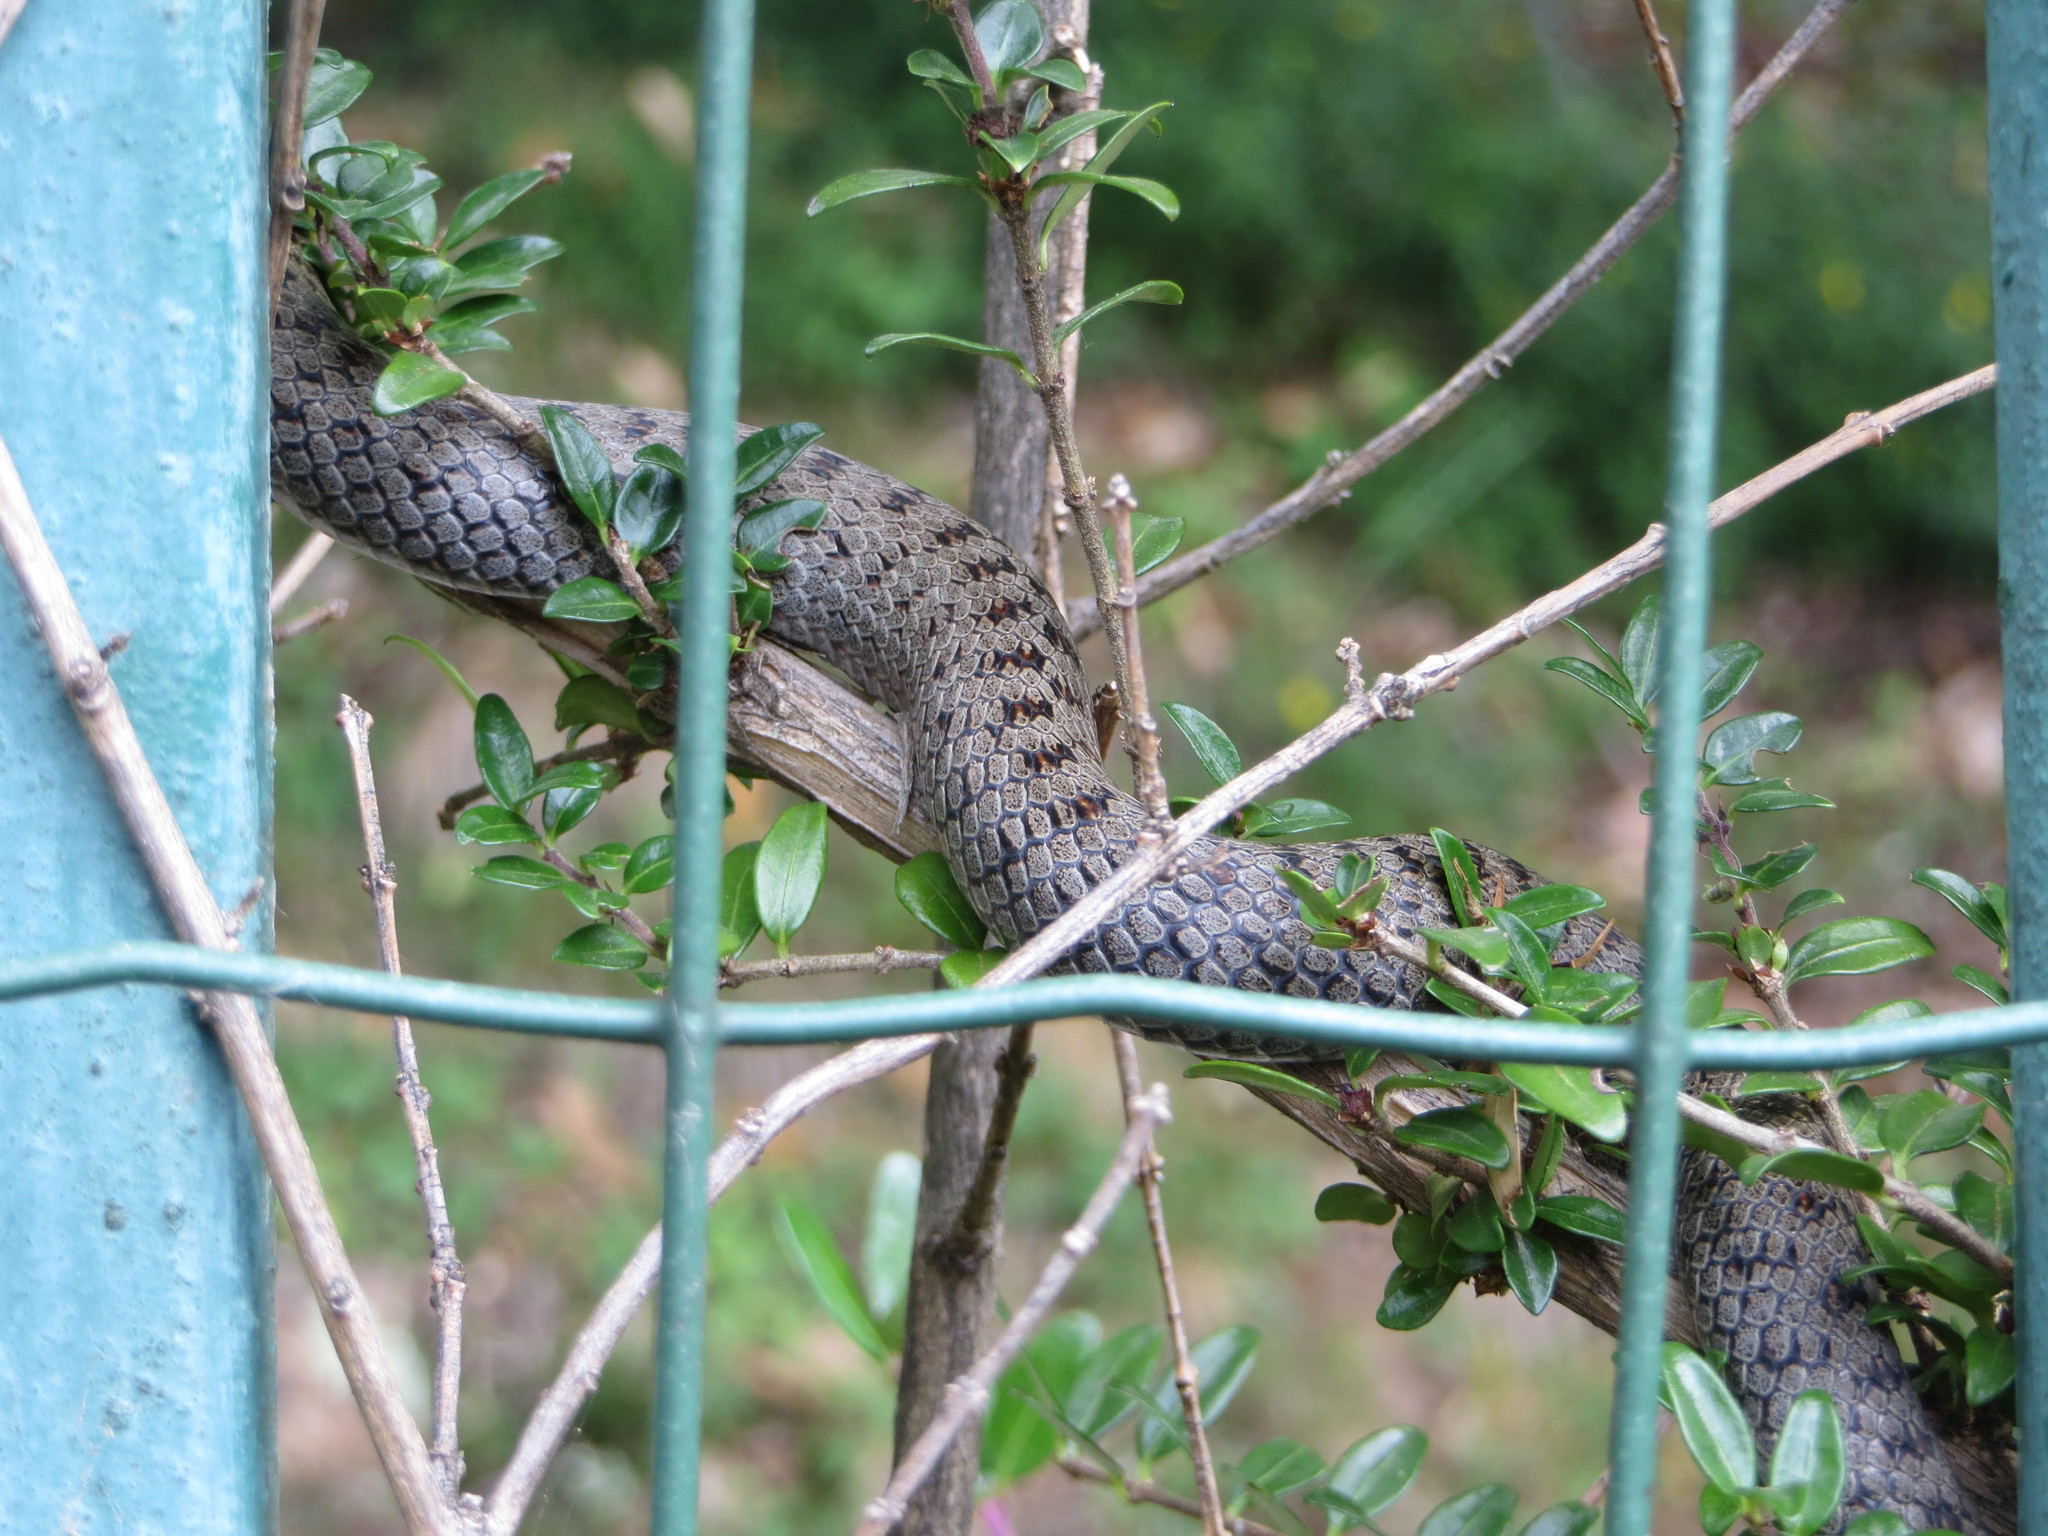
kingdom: Animalia
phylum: Chordata
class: Squamata
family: Colubridae
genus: Coronella
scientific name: Coronella austriaca
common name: Smooth snake
